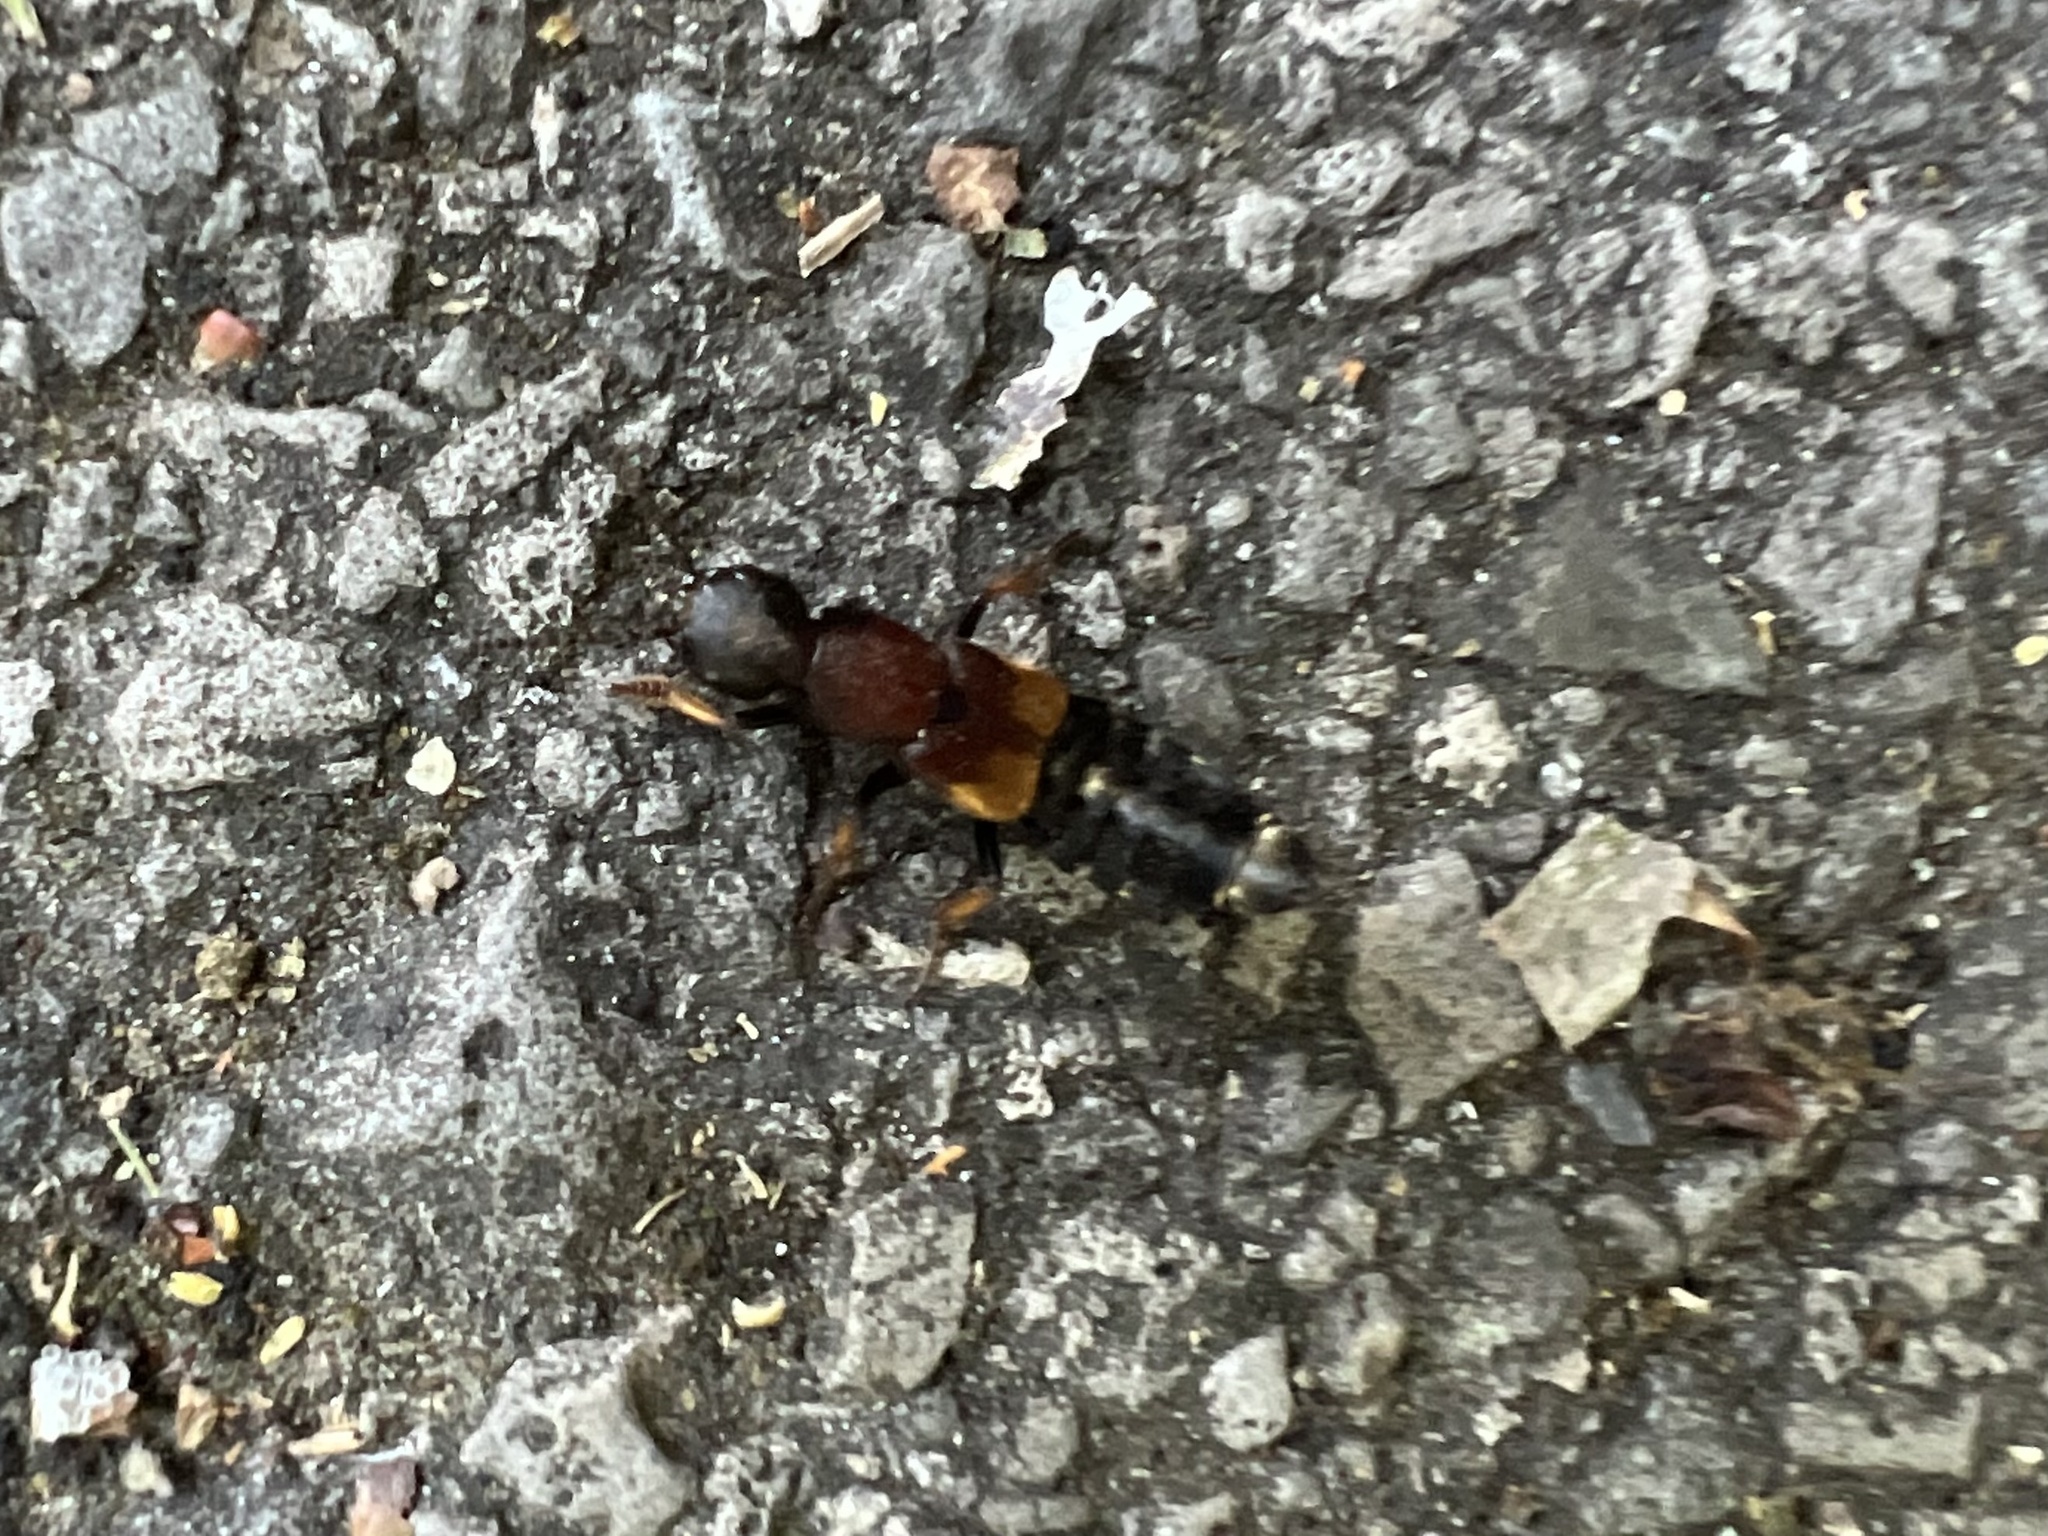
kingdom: Animalia
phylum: Arthropoda
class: Insecta
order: Coleoptera
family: Staphylinidae
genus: Dinothenarus
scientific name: Dinothenarus fossor
